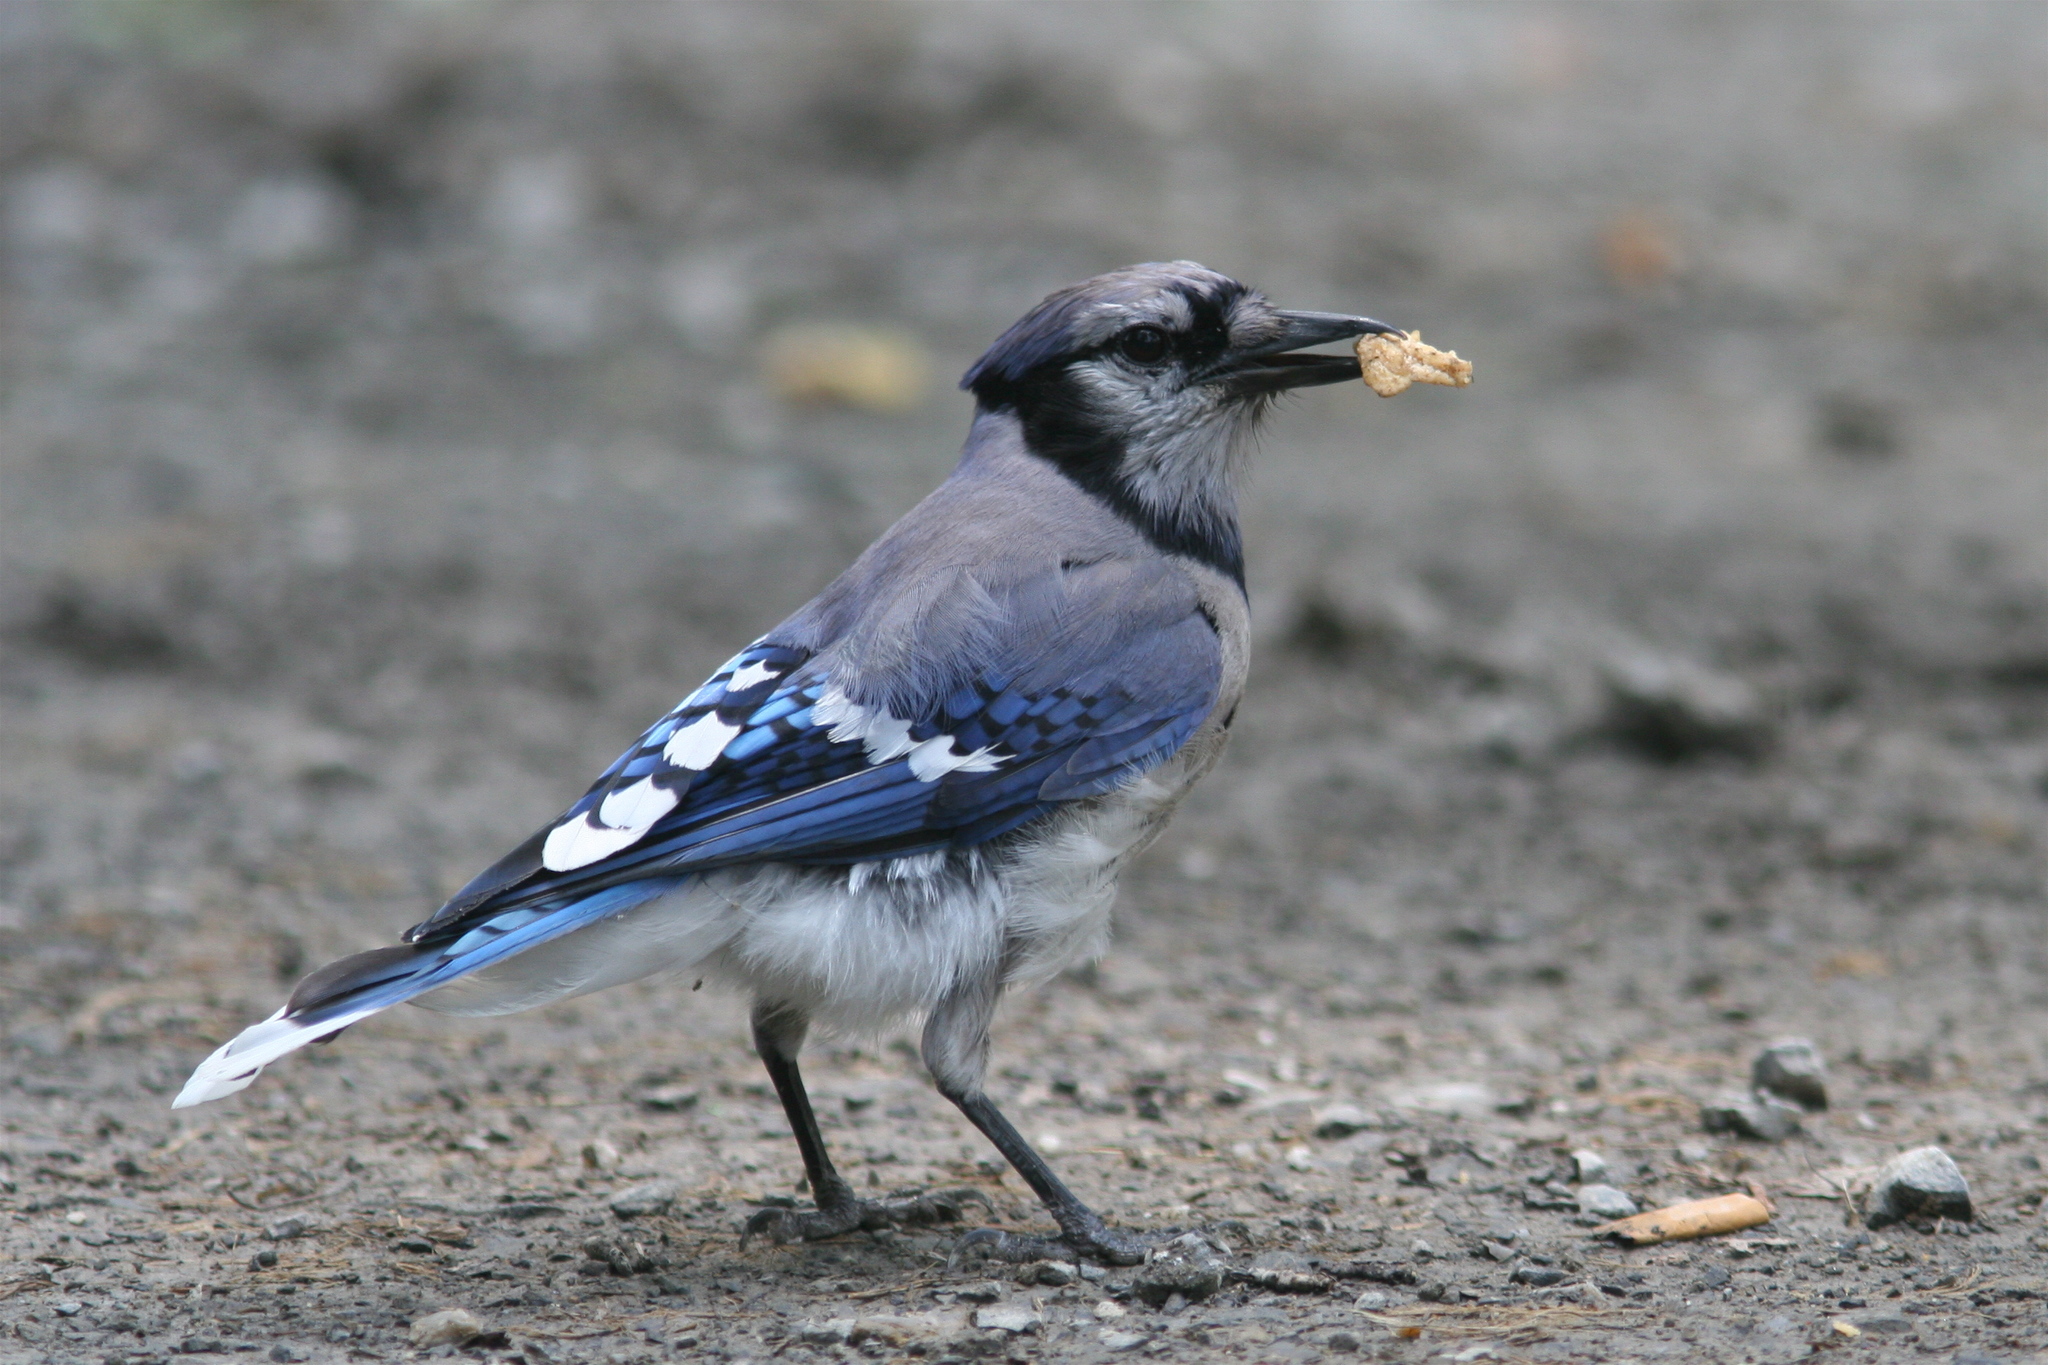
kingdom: Animalia
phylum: Chordata
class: Aves
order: Passeriformes
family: Corvidae
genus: Cyanocitta
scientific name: Cyanocitta cristata
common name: Blue jay
